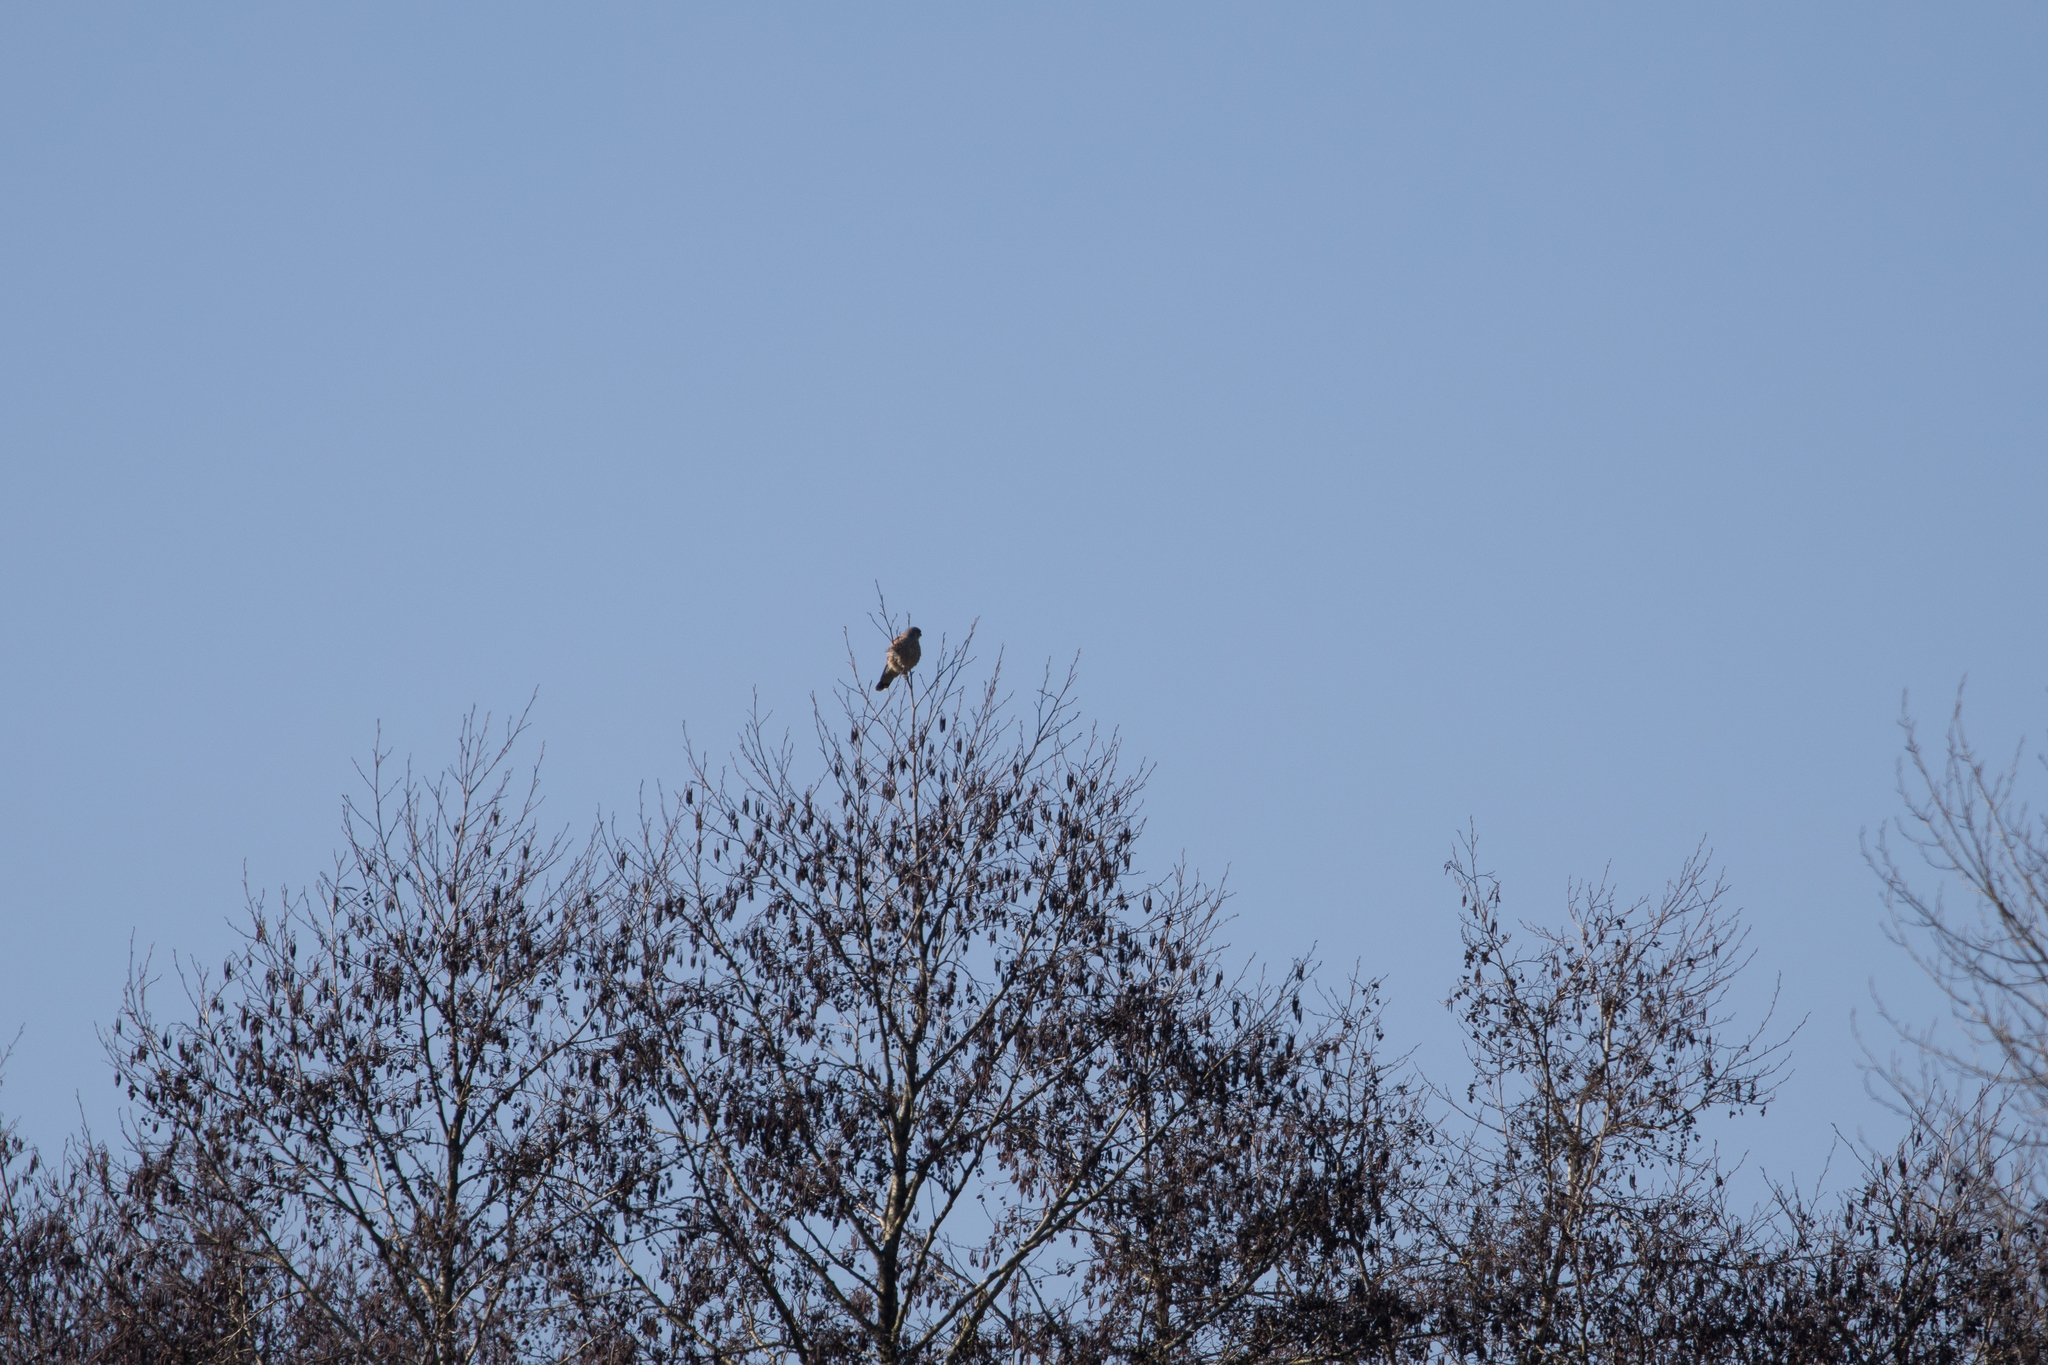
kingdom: Animalia
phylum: Chordata
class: Aves
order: Falconiformes
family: Falconidae
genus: Falco
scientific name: Falco tinnunculus
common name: Common kestrel
